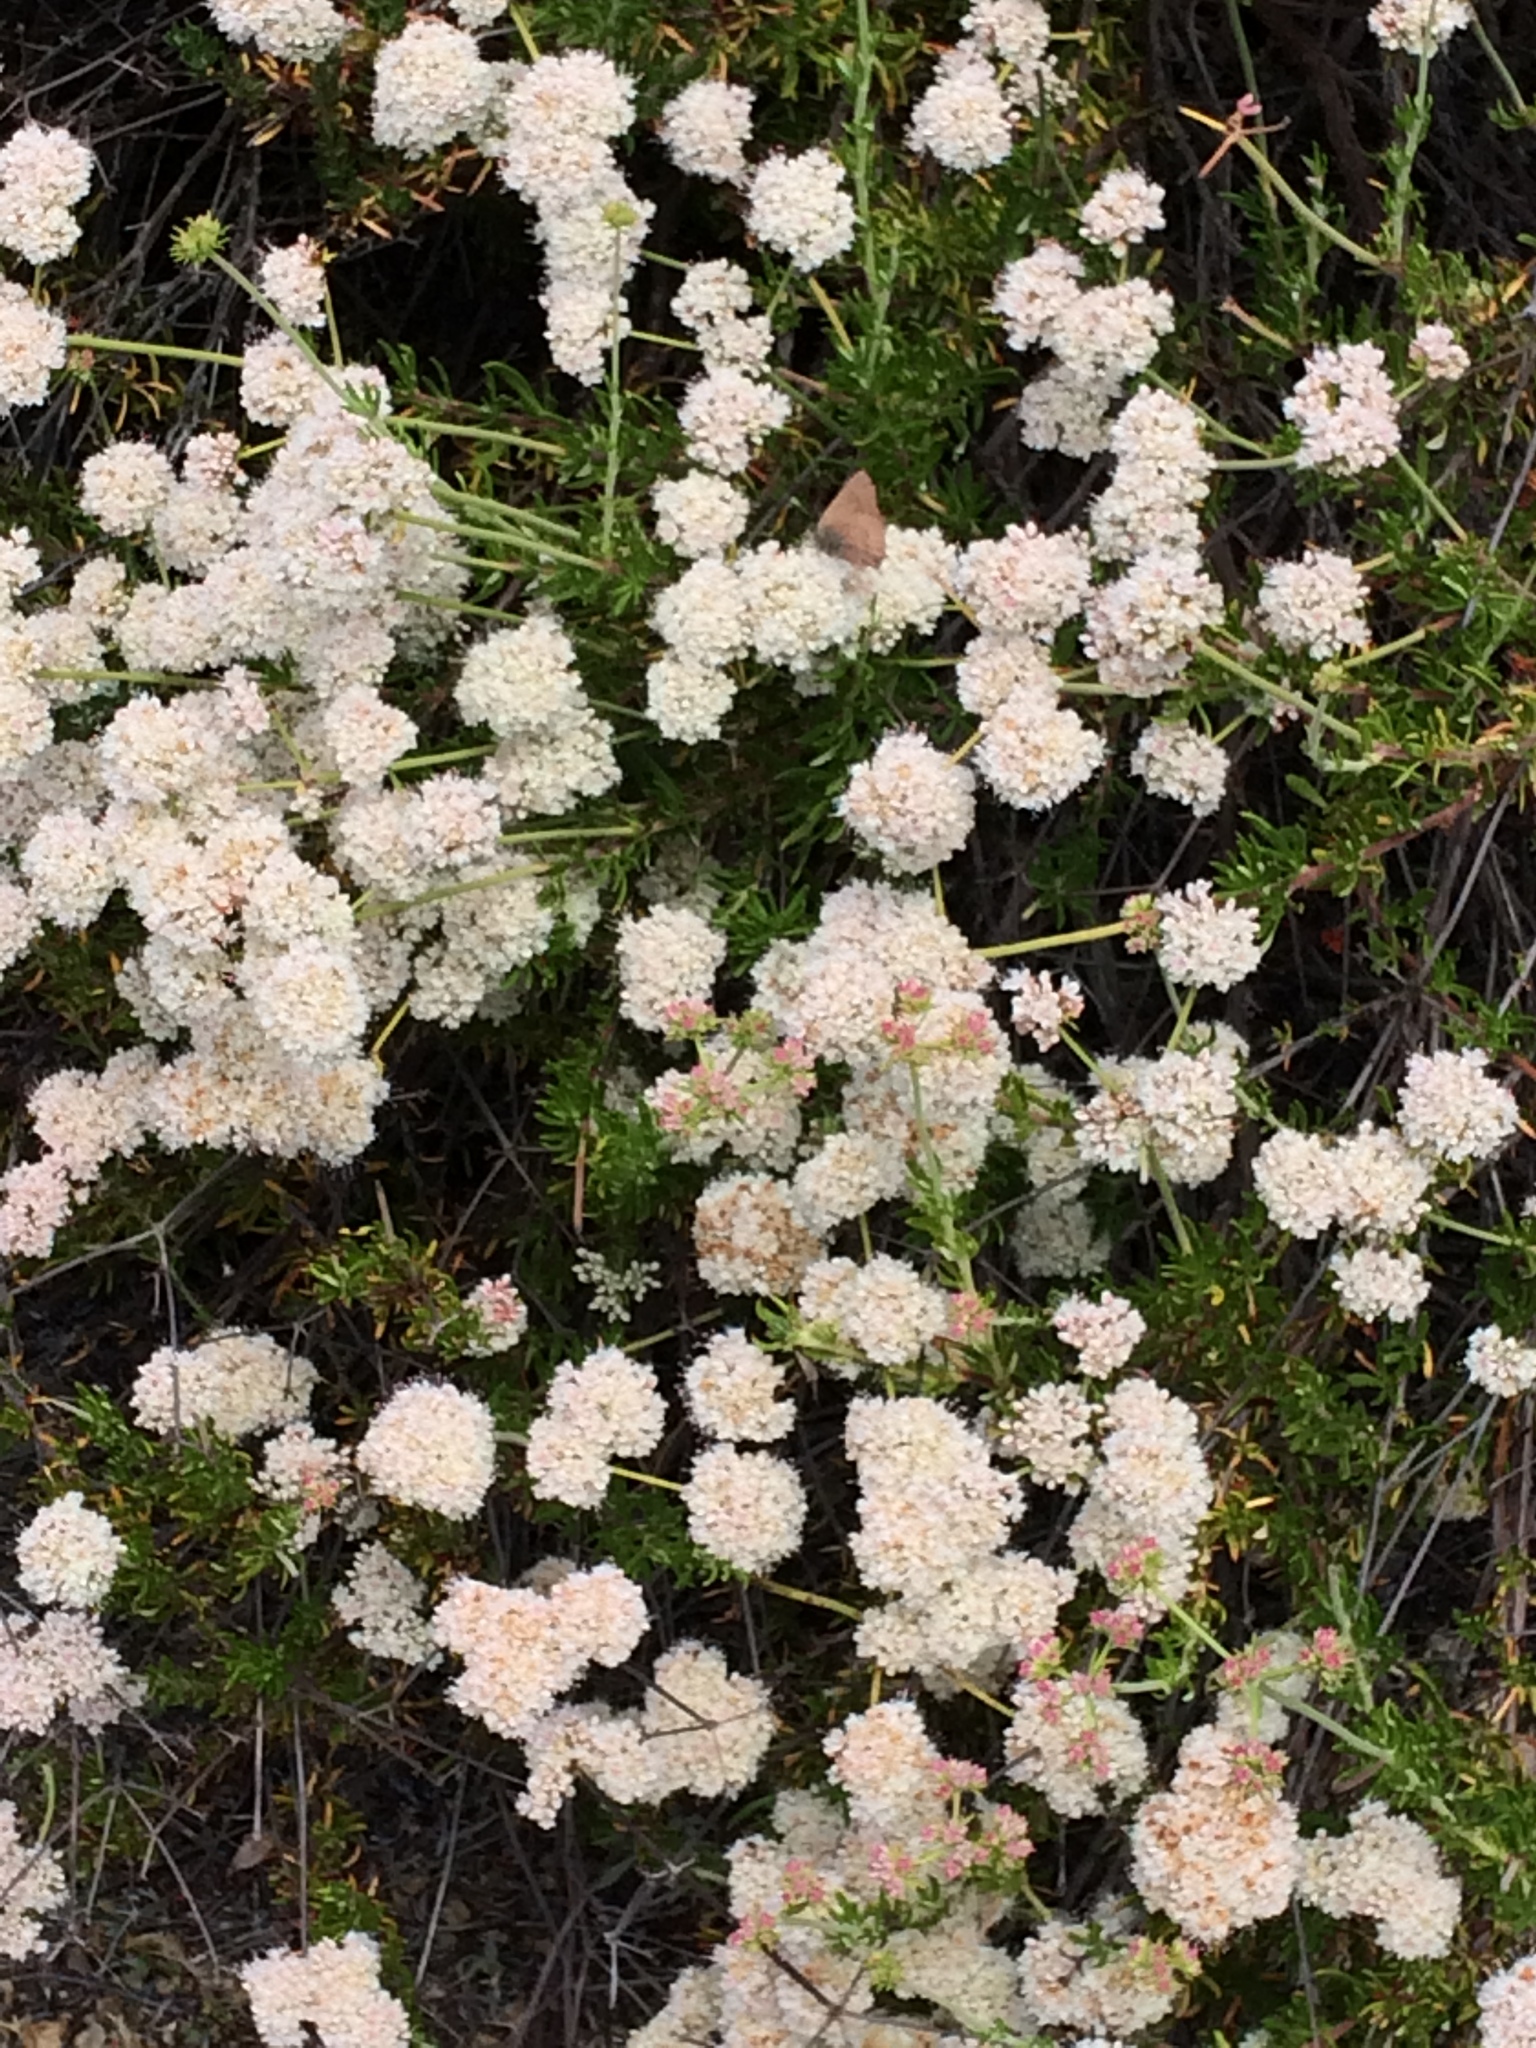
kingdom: Plantae
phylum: Tracheophyta
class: Magnoliopsida
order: Caryophyllales
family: Polygonaceae
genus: Eriogonum
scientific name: Eriogonum fasciculatum
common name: California wild buckwheat
